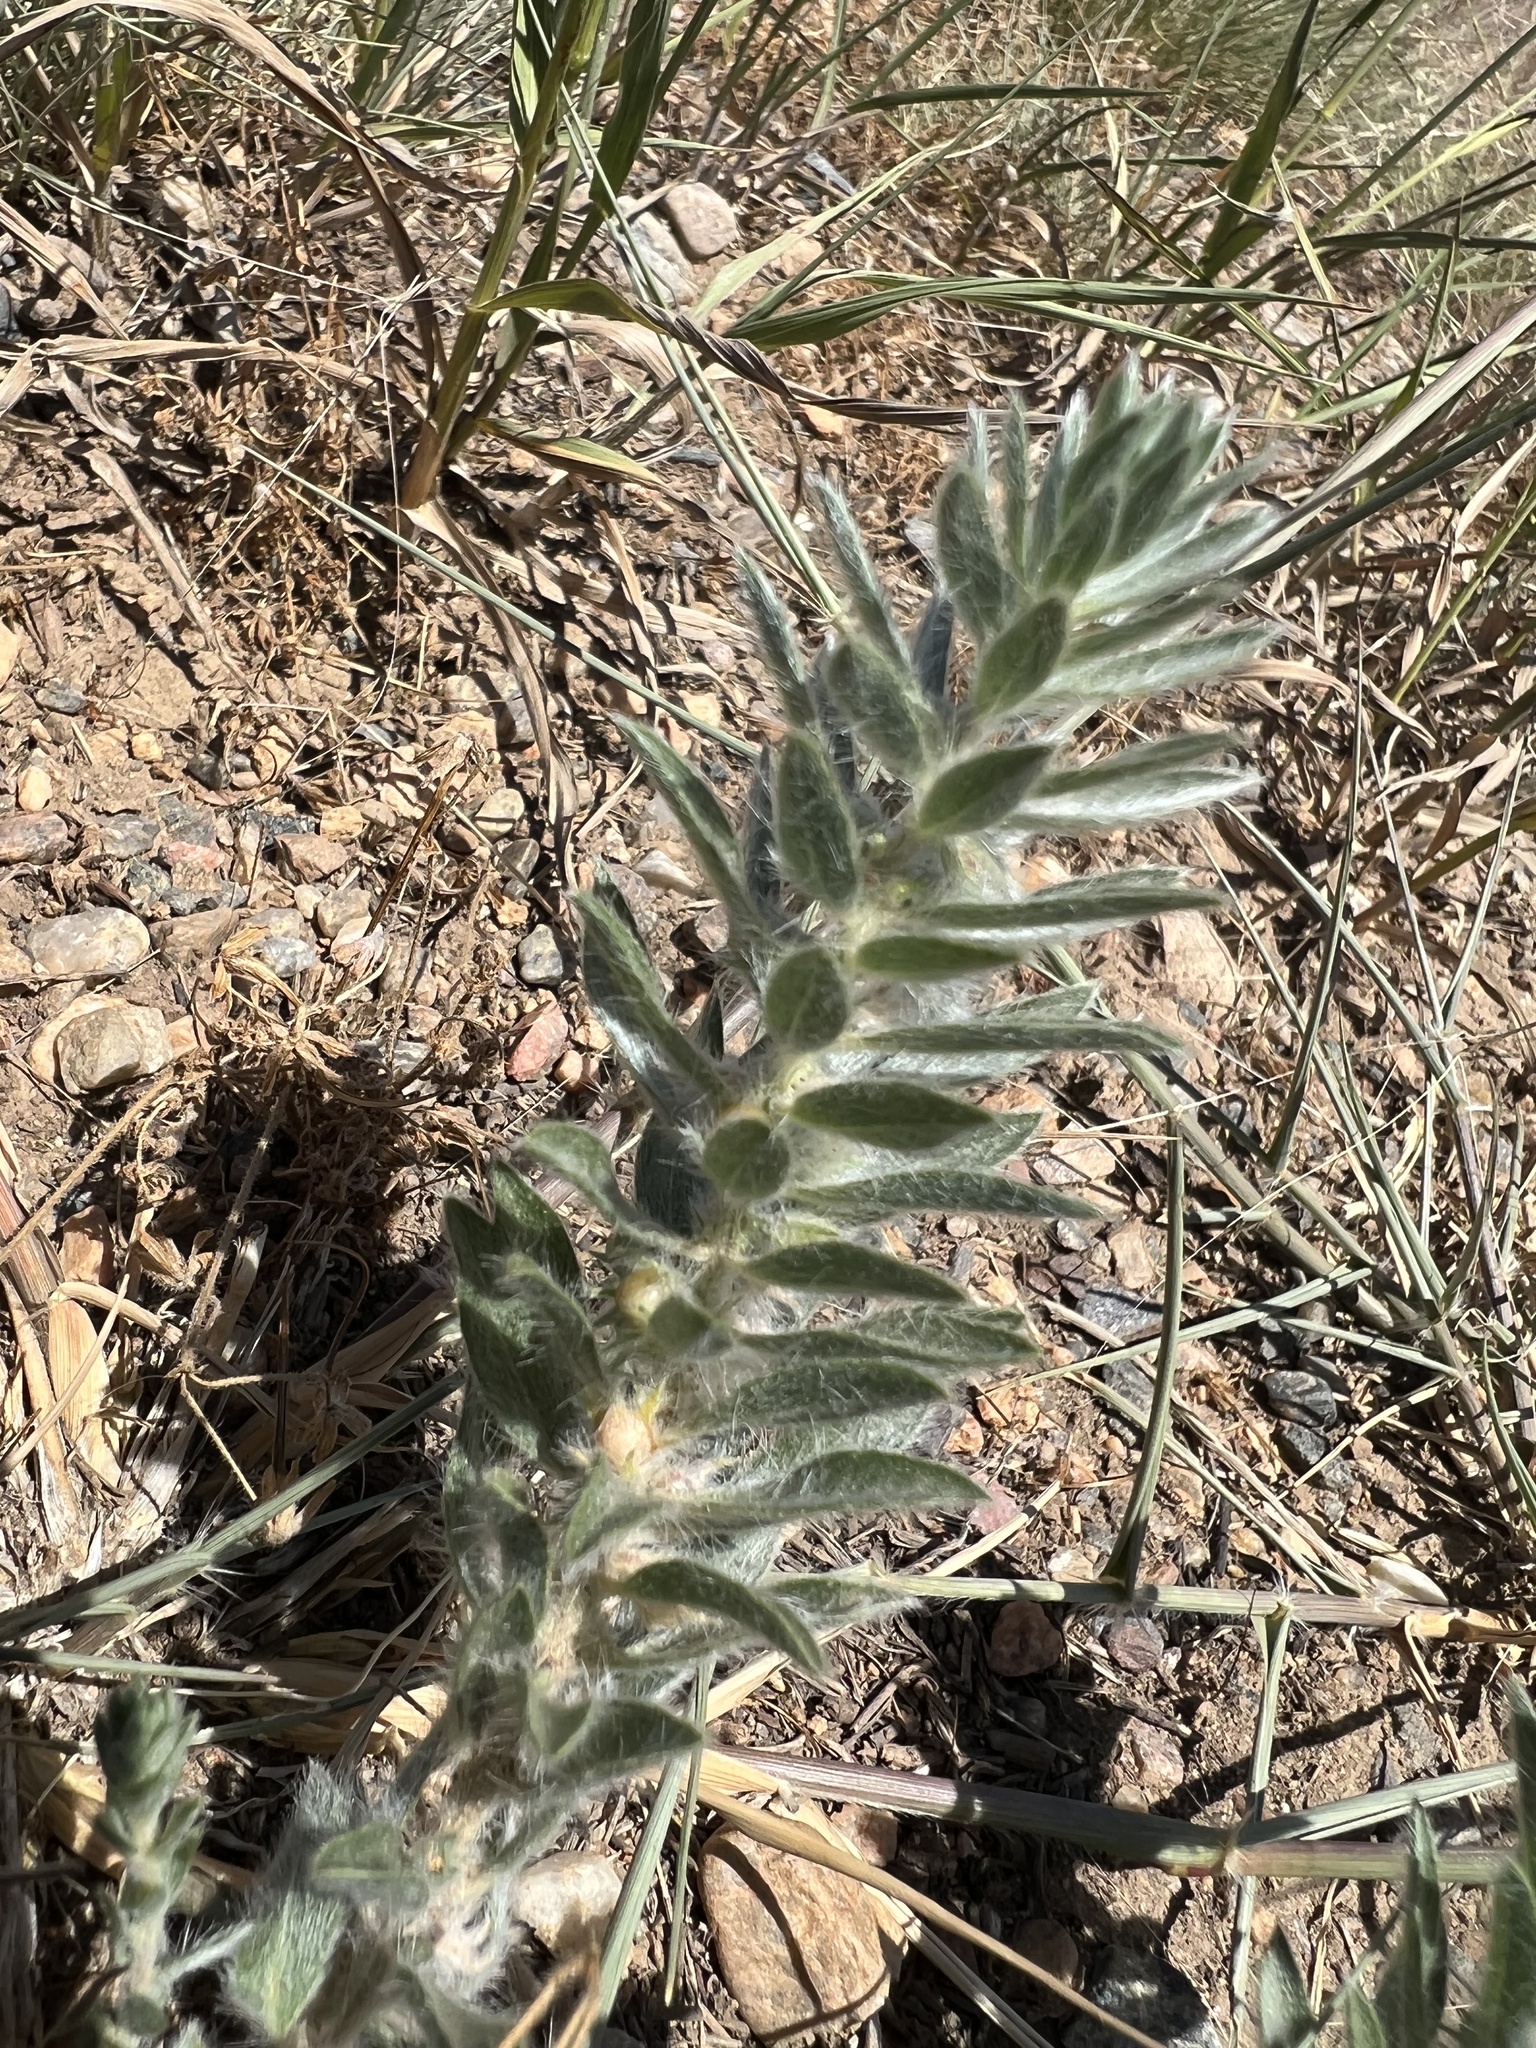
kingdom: Plantae
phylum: Tracheophyta
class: Magnoliopsida
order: Solanales
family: Convolvulaceae
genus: Evolvulus
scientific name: Evolvulus nuttallianus
